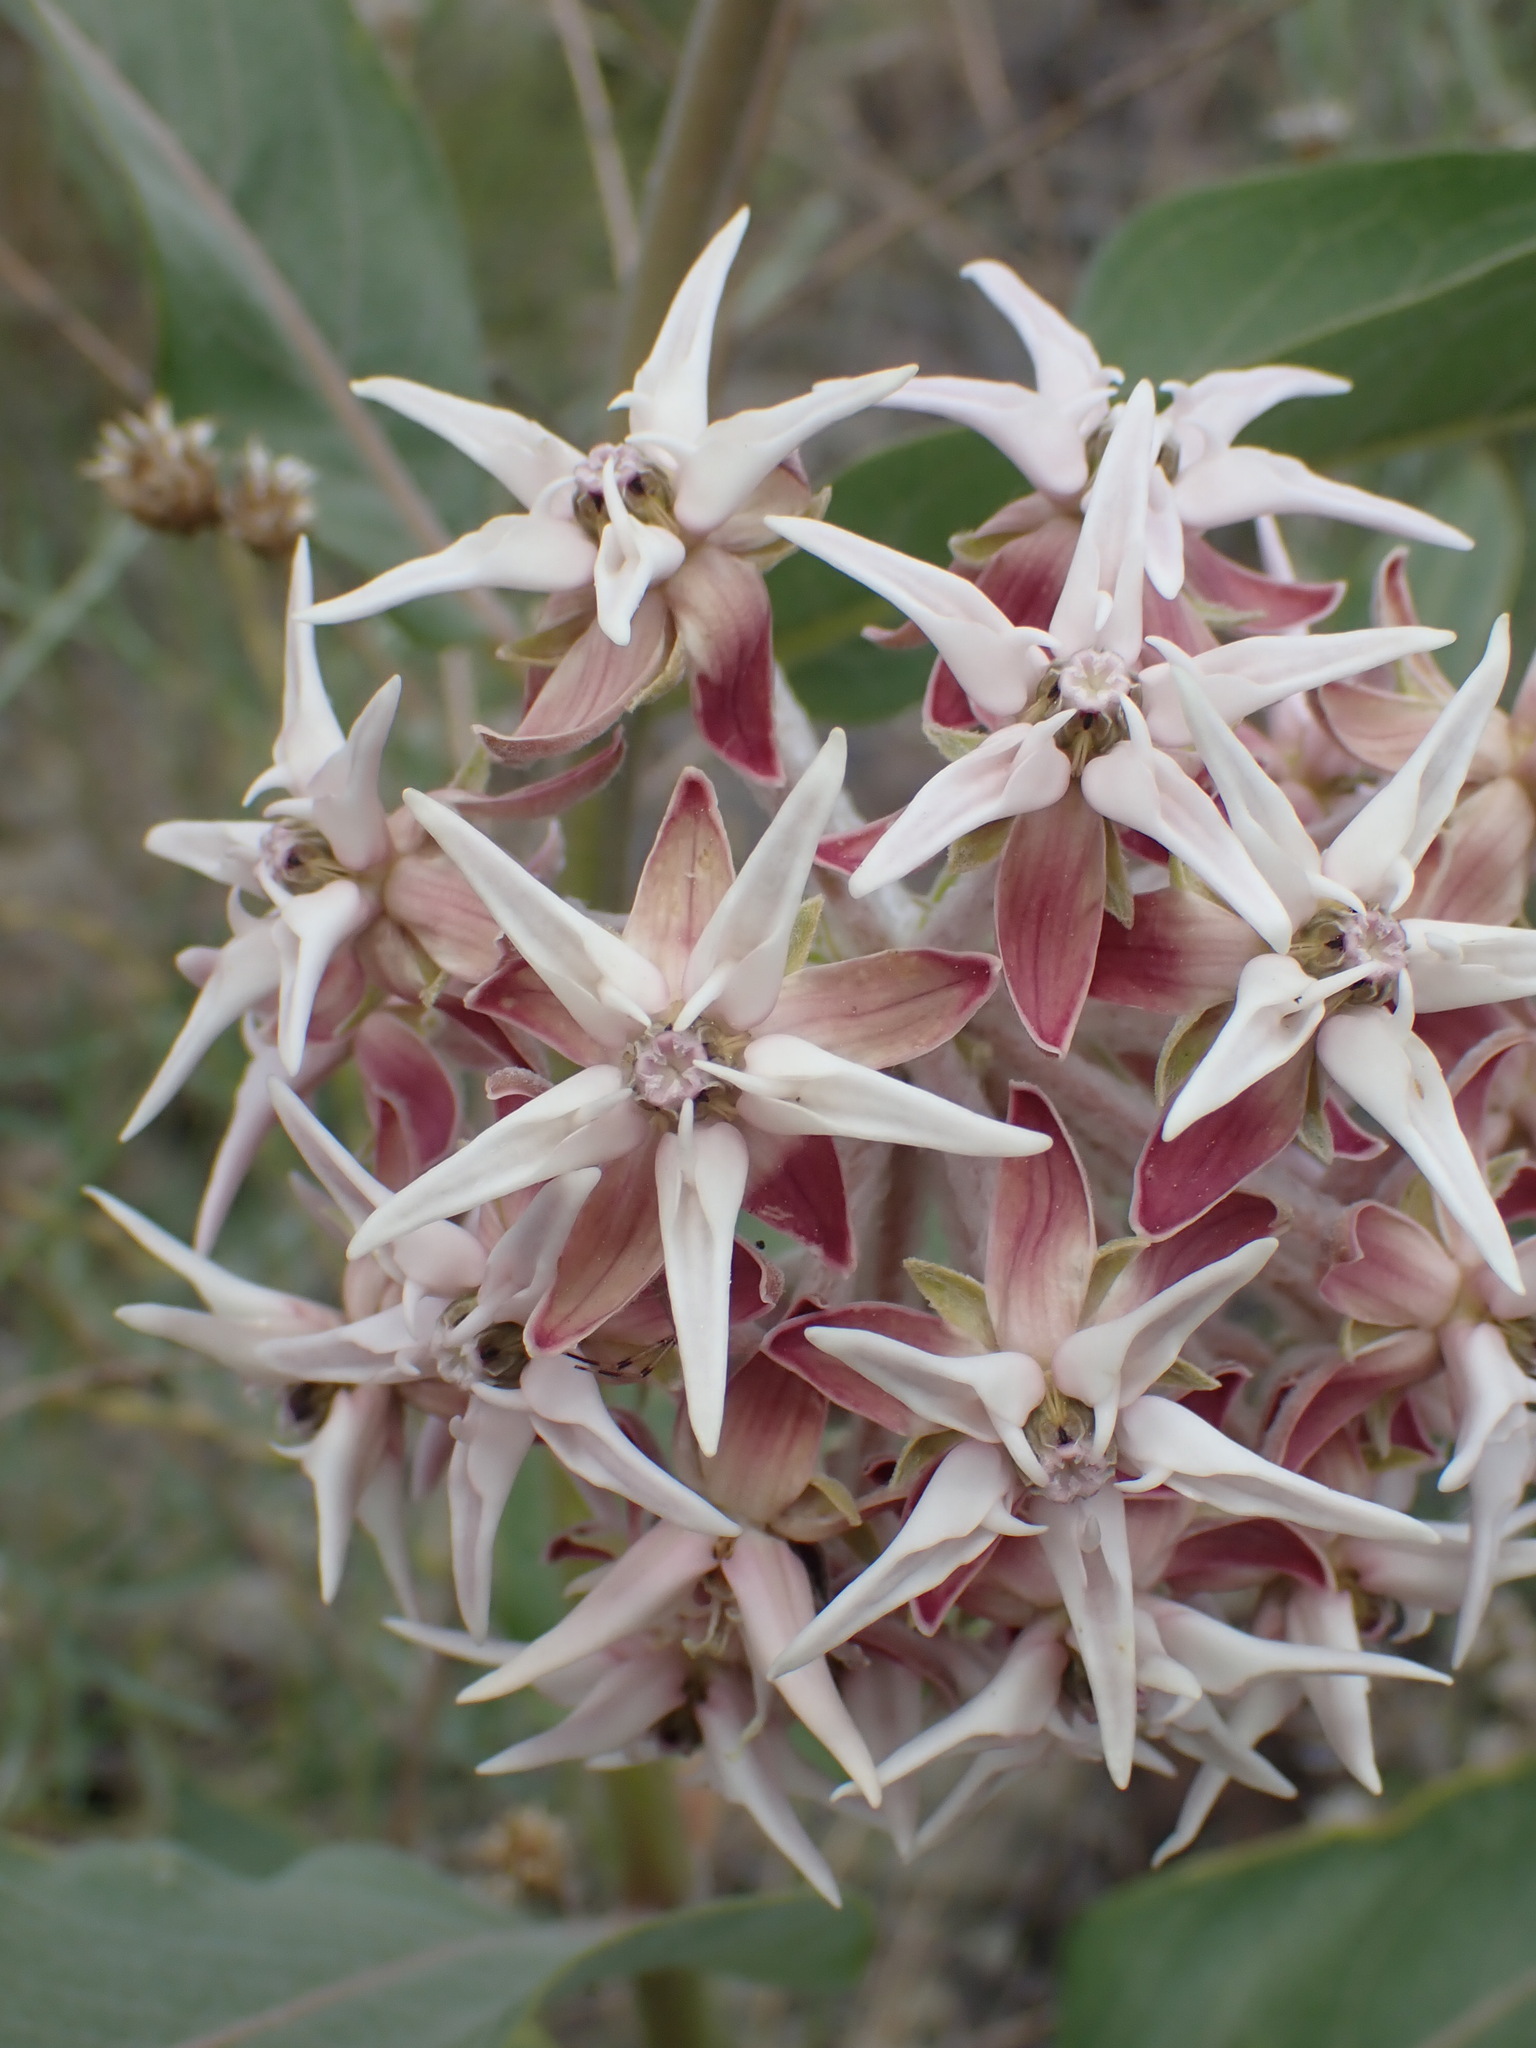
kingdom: Plantae
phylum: Tracheophyta
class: Magnoliopsida
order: Gentianales
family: Apocynaceae
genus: Asclepias
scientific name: Asclepias speciosa
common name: Showy milkweed
